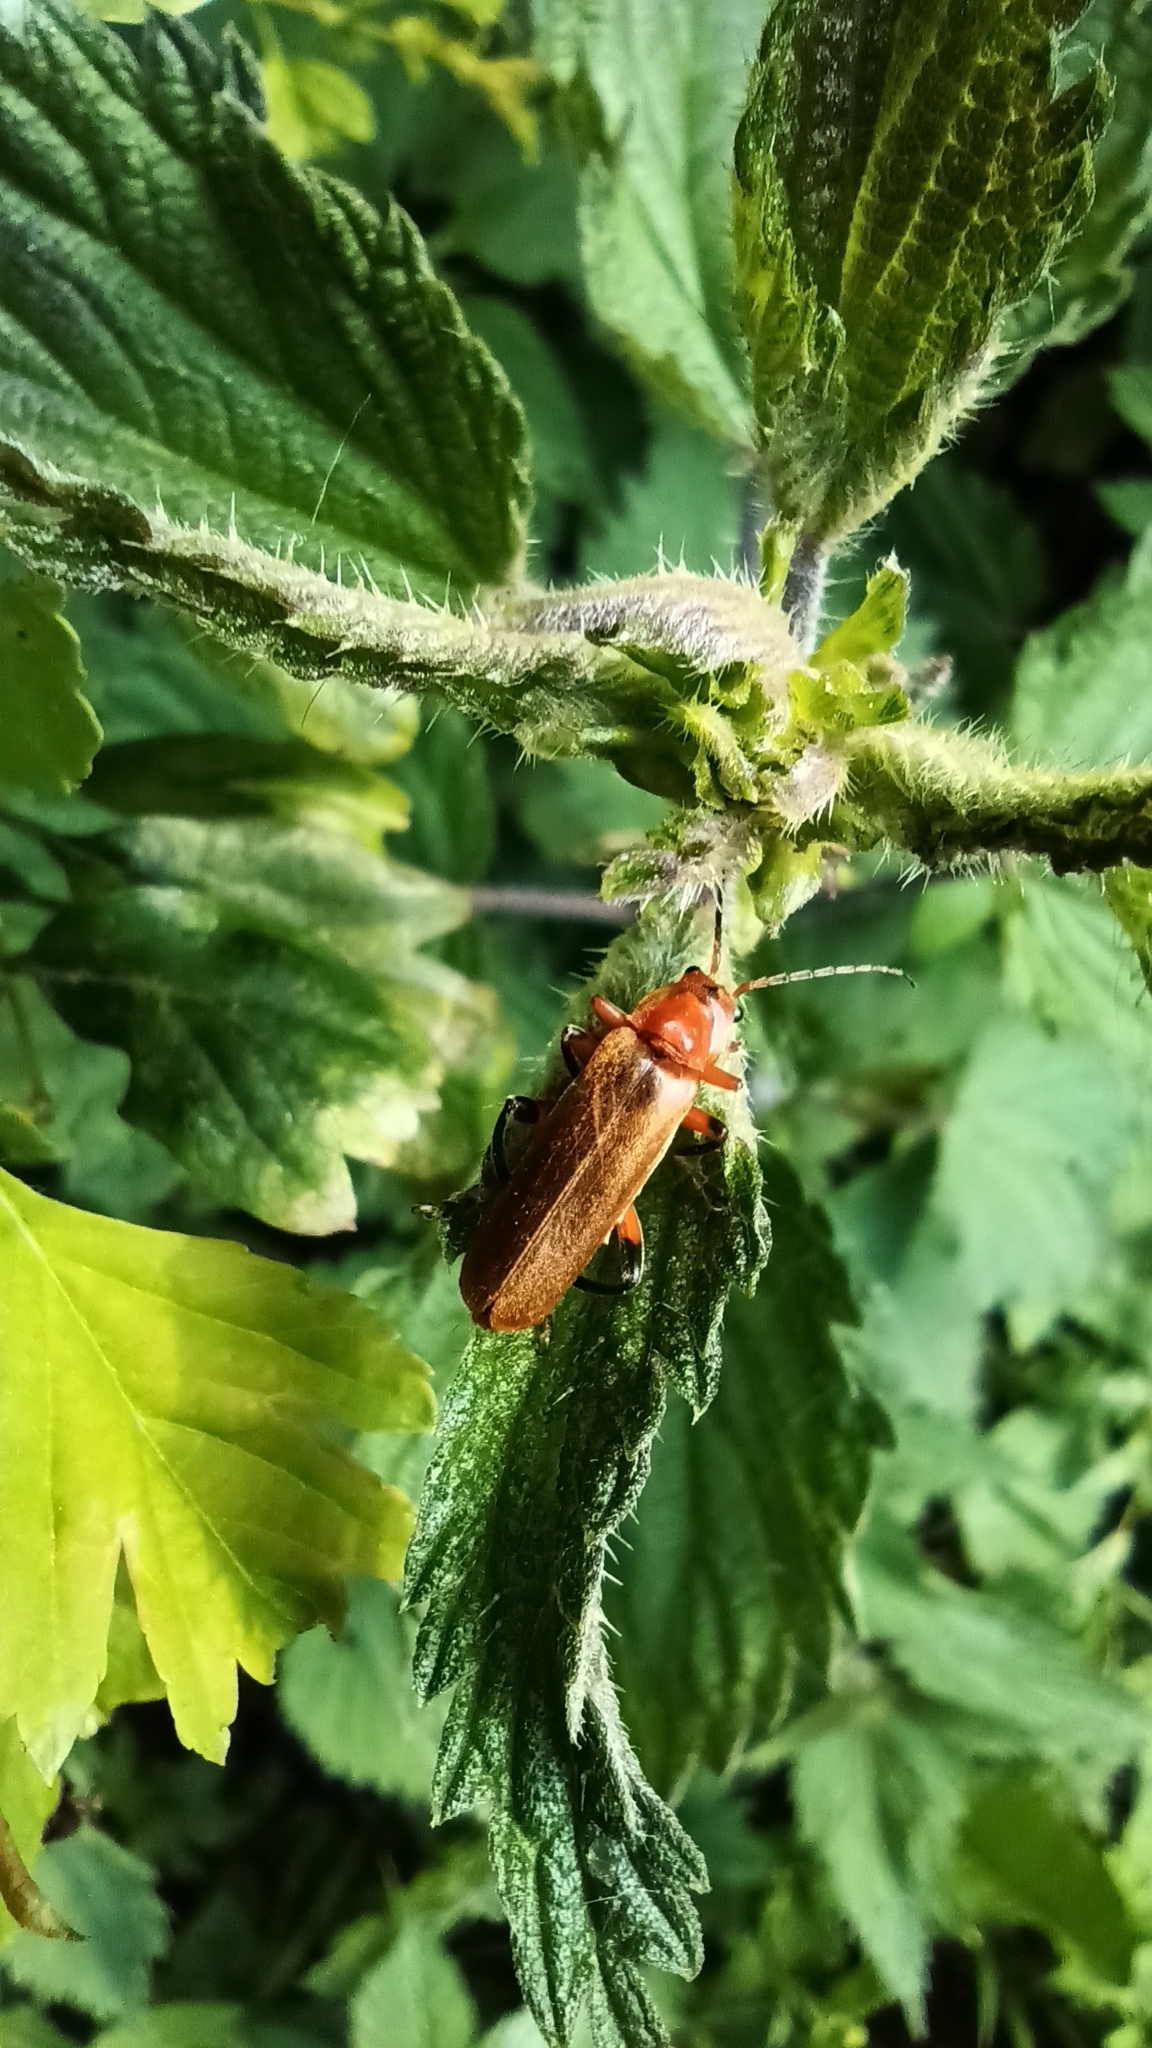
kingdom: Animalia
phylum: Arthropoda
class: Insecta
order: Coleoptera
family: Cantharidae
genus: Cantharis
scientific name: Cantharis livida
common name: Livid soldier beetle
